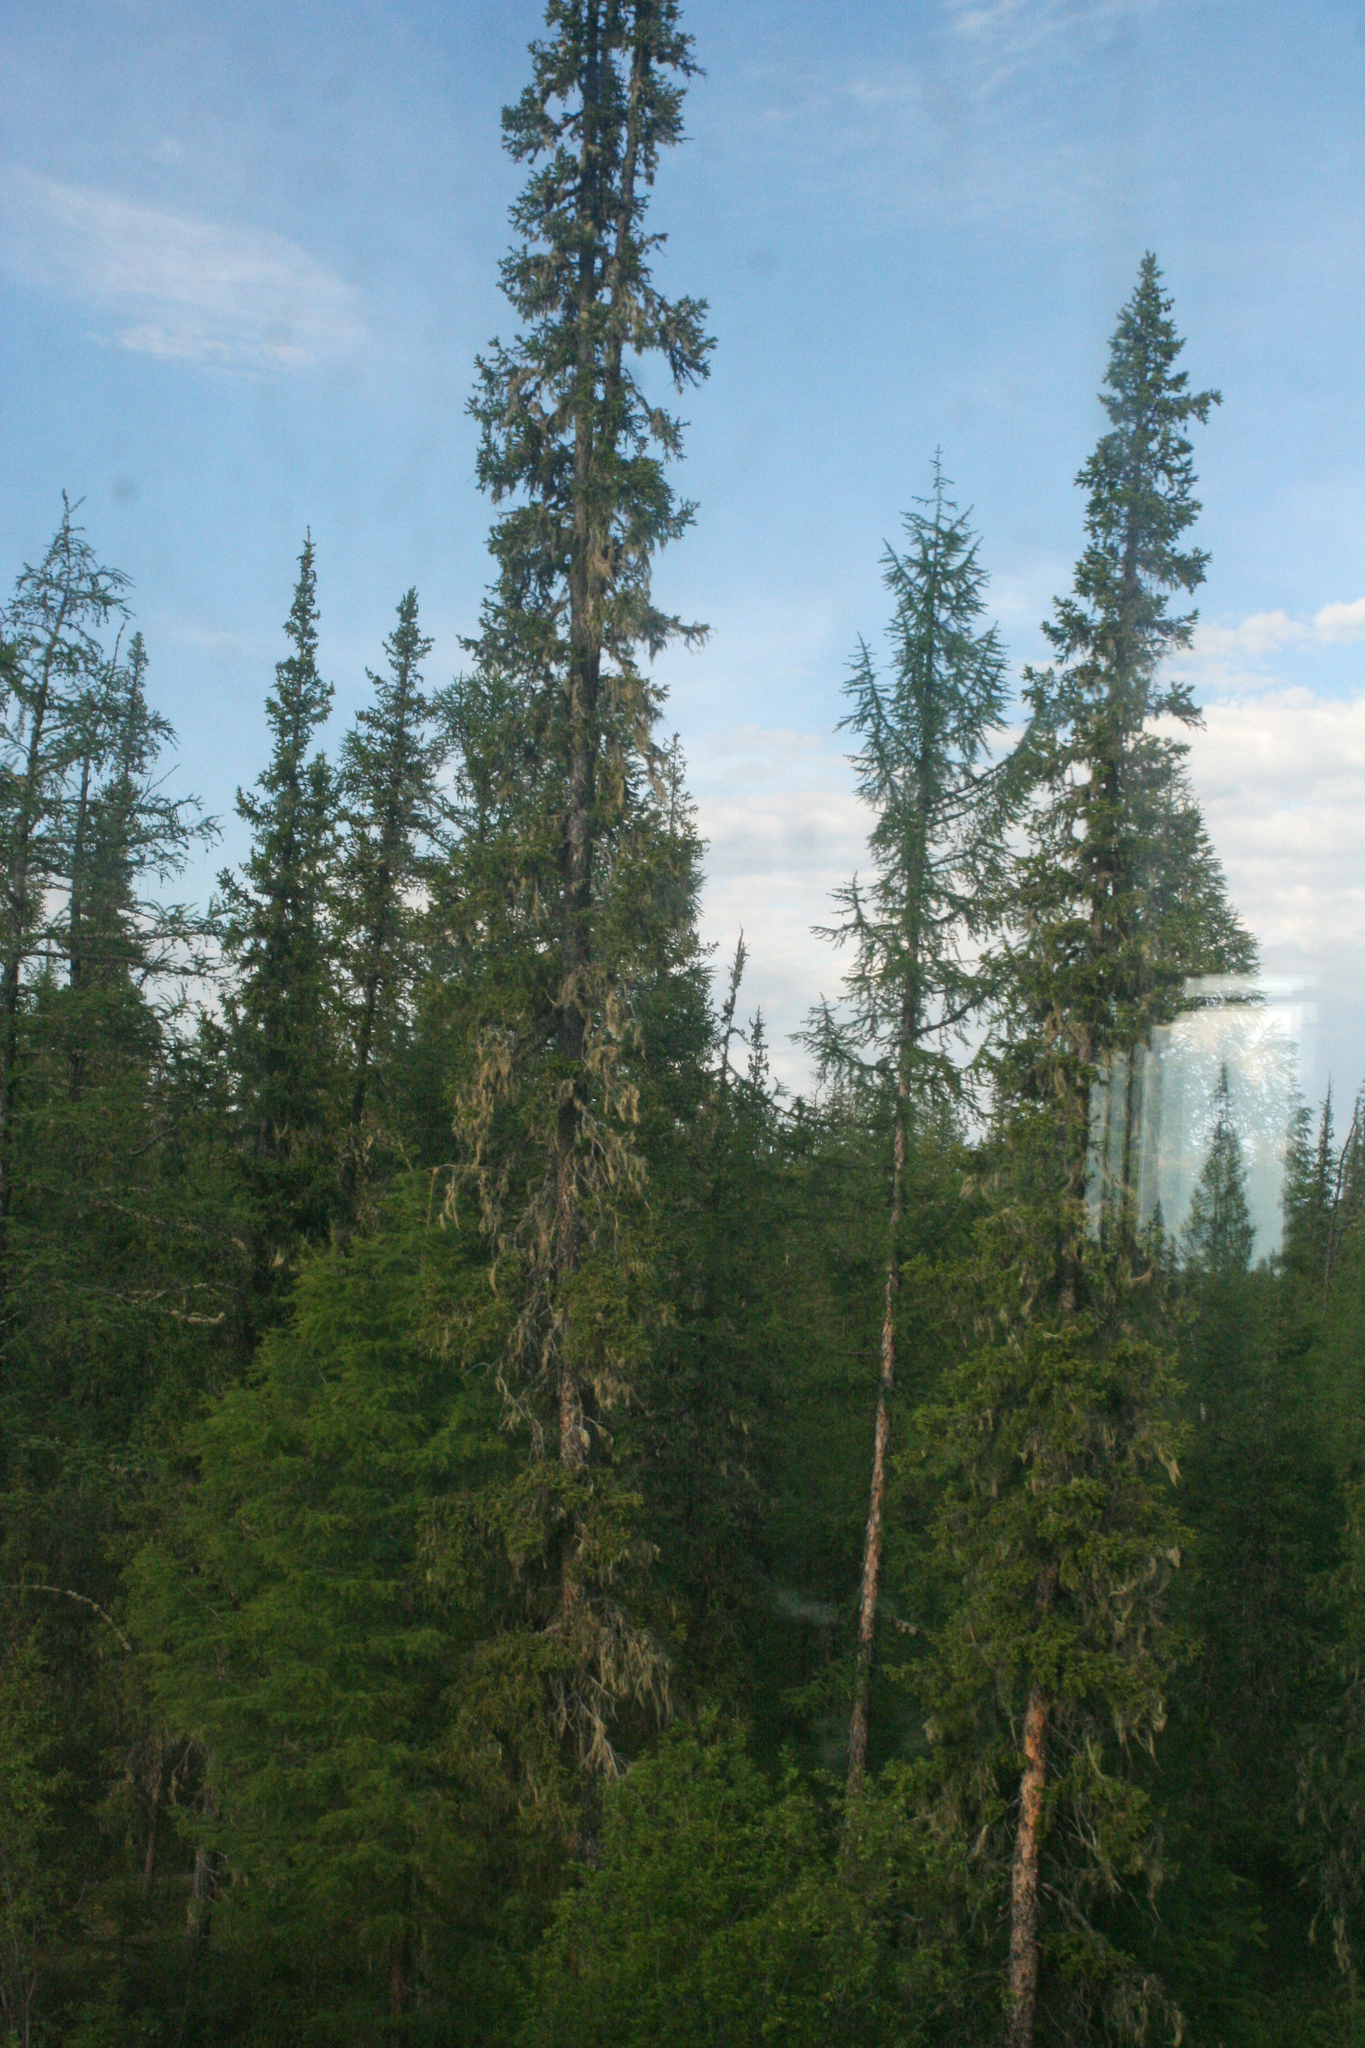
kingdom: Plantae
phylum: Tracheophyta
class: Pinopsida
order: Pinales
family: Pinaceae
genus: Picea
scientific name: Picea obovata
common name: Siberian spruce
